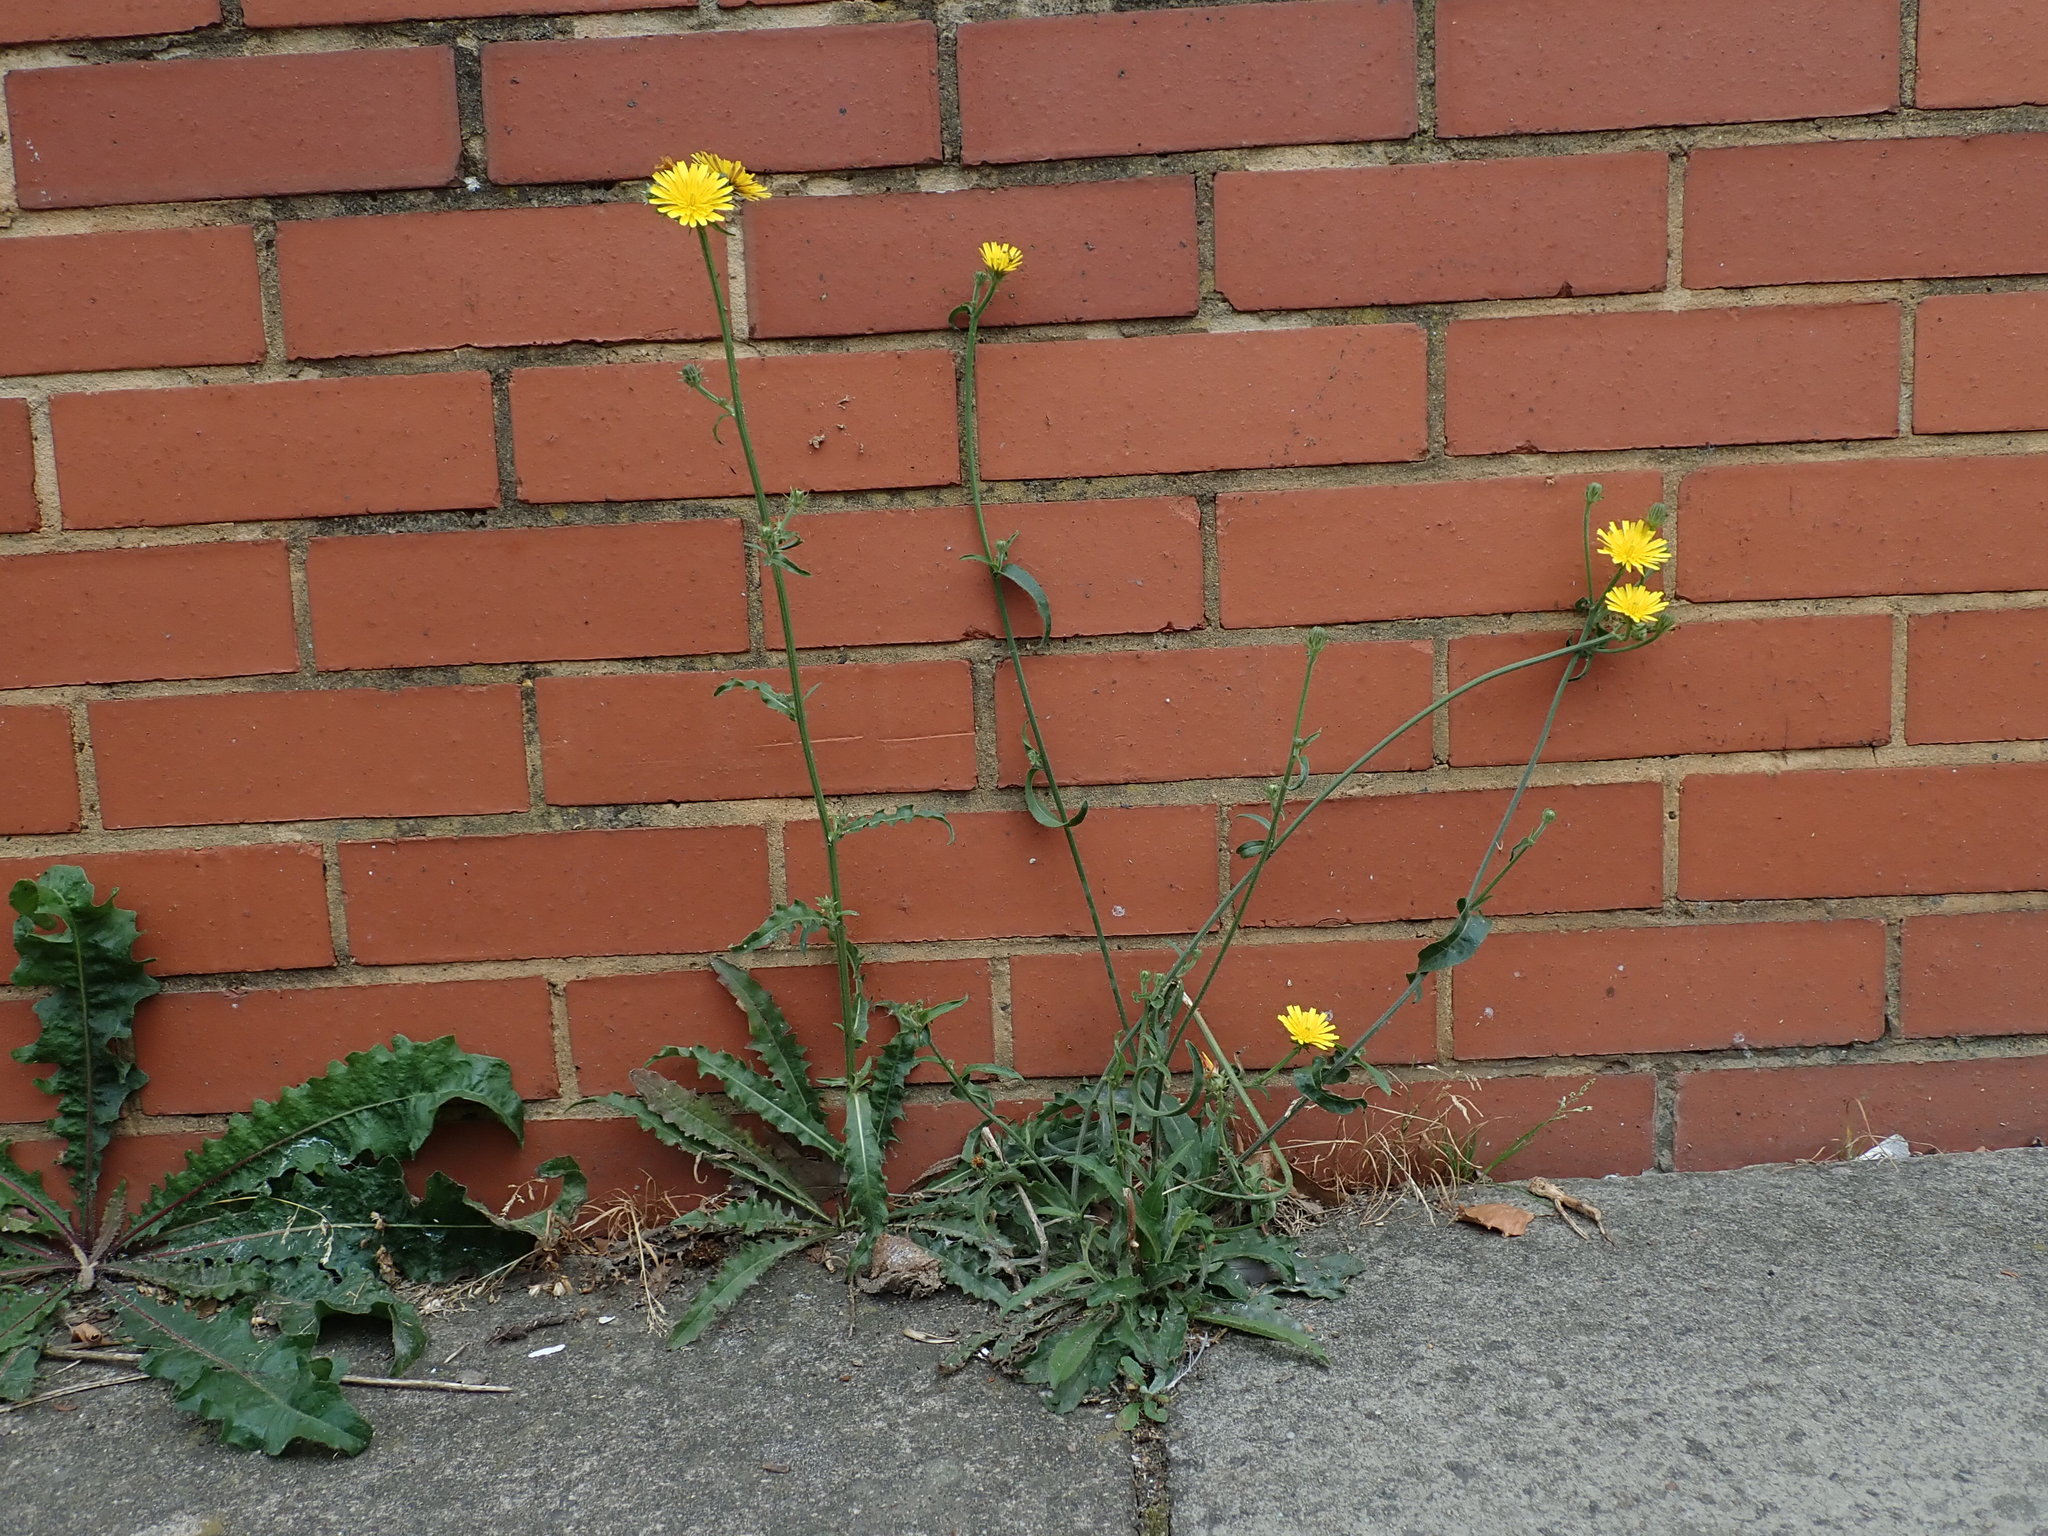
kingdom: Plantae
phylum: Tracheophyta
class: Magnoliopsida
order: Asterales
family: Asteraceae
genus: Picris
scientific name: Picris hieracioides
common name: Hawkweed oxtongue
